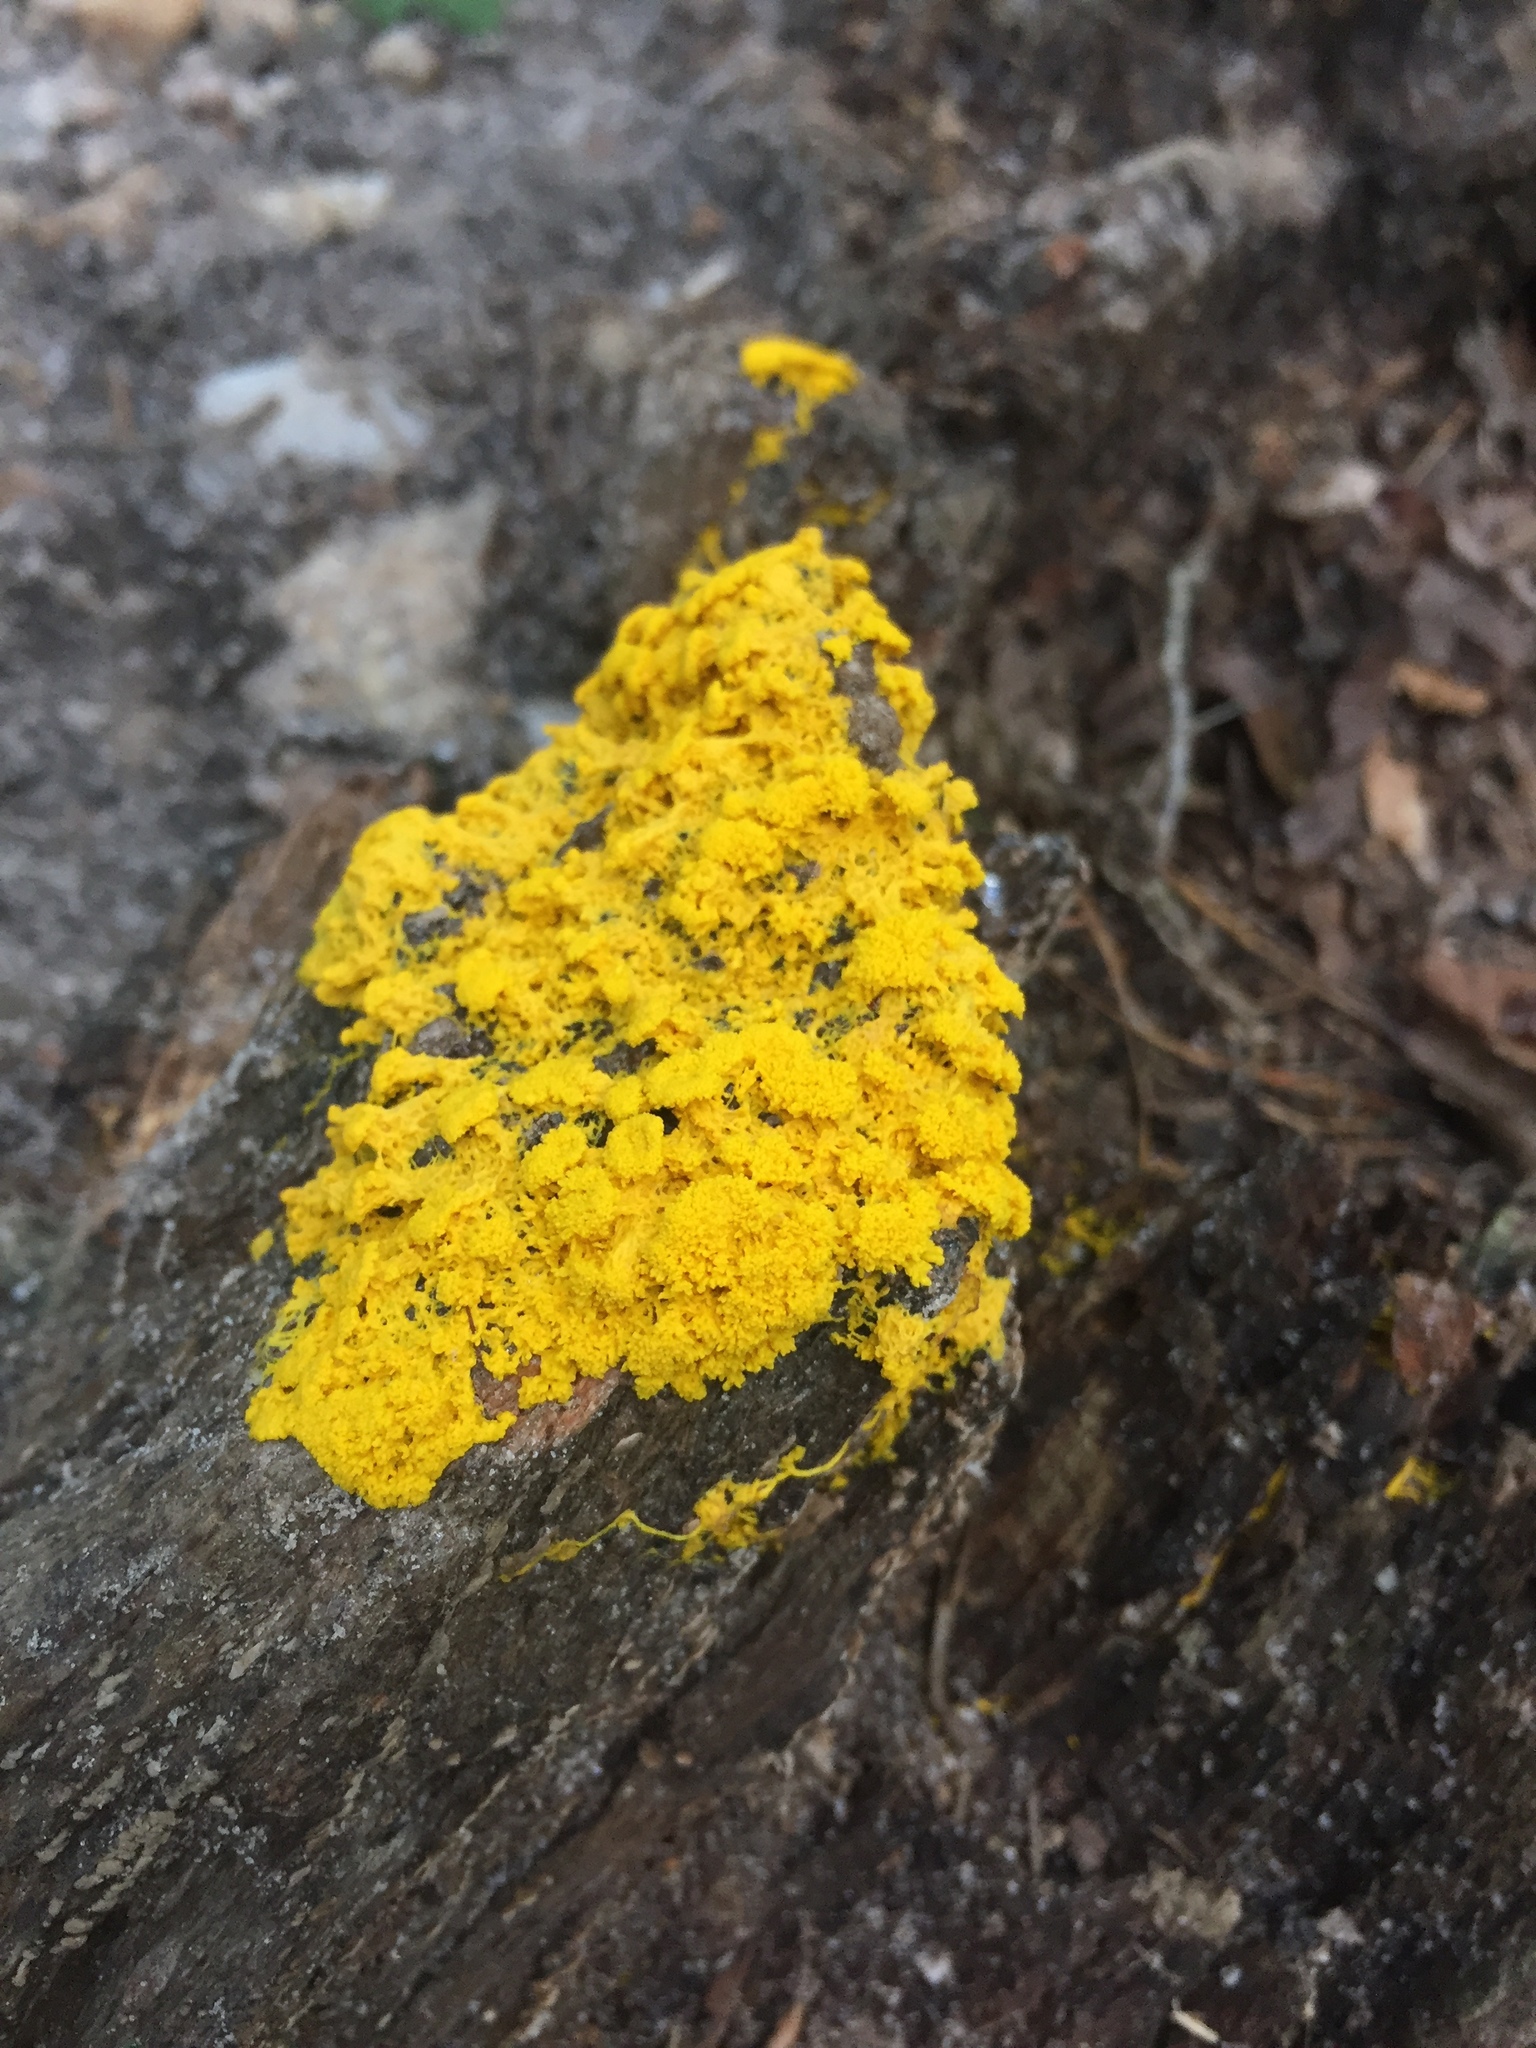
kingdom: Protozoa
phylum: Mycetozoa
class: Myxomycetes
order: Physarales
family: Physaraceae
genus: Fuligo
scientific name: Fuligo septica
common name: Dog vomit slime mold
